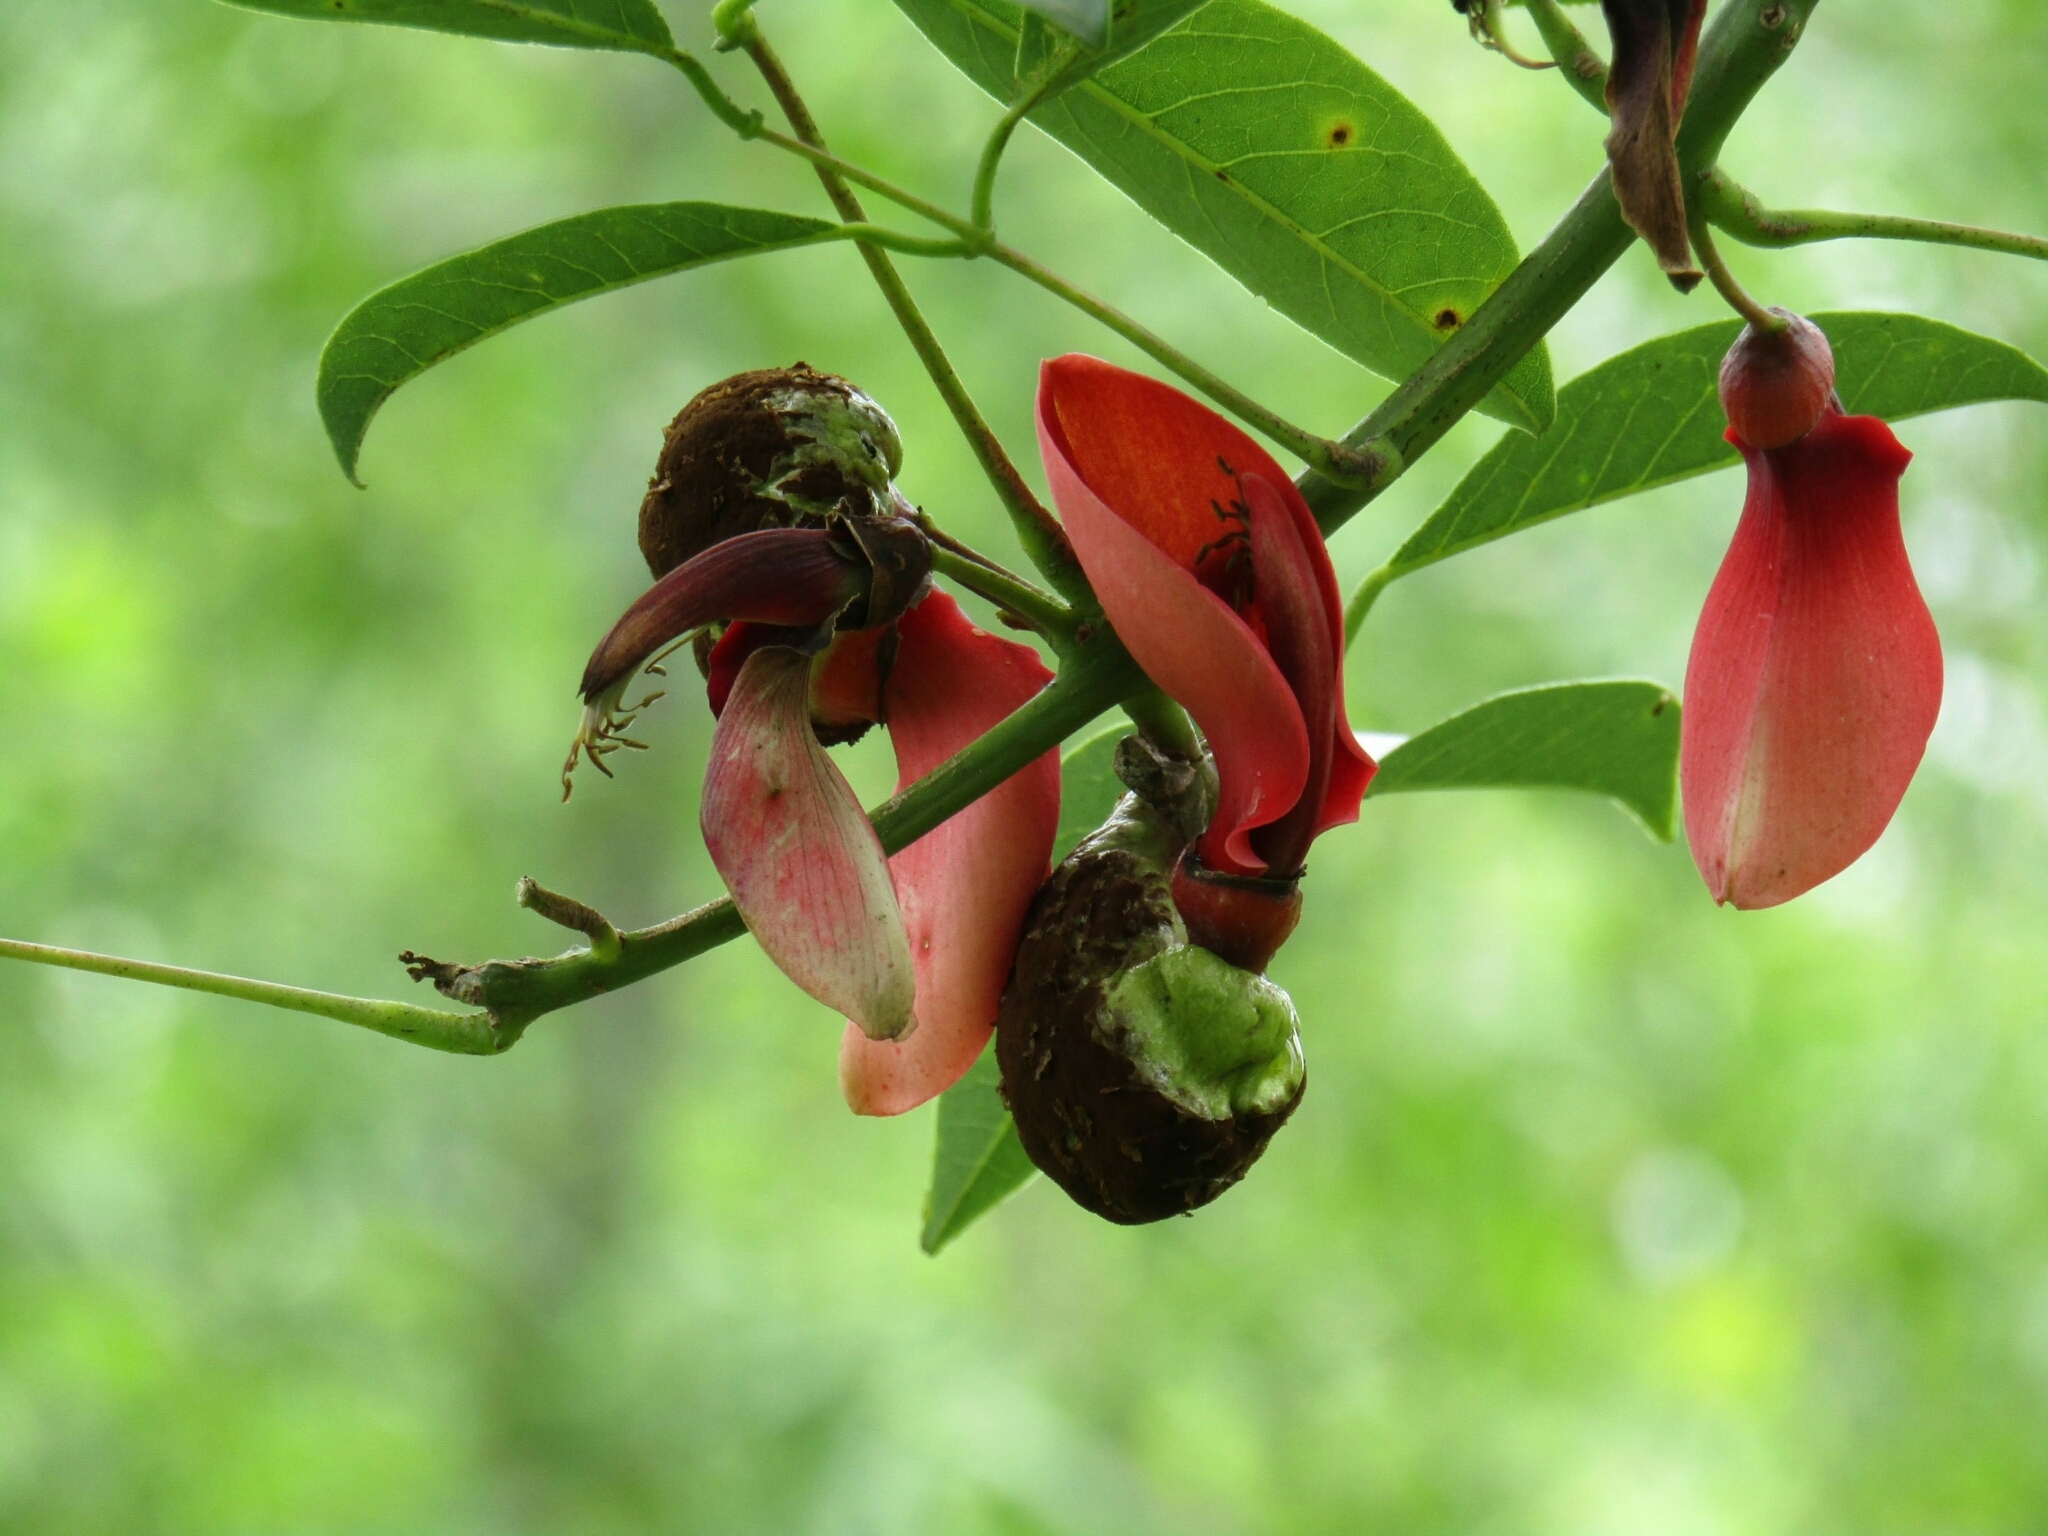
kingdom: Plantae
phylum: Tracheophyta
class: Magnoliopsida
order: Fabales
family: Fabaceae
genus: Erythrina
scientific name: Erythrina crista-galli
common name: Cockspur coral tree
